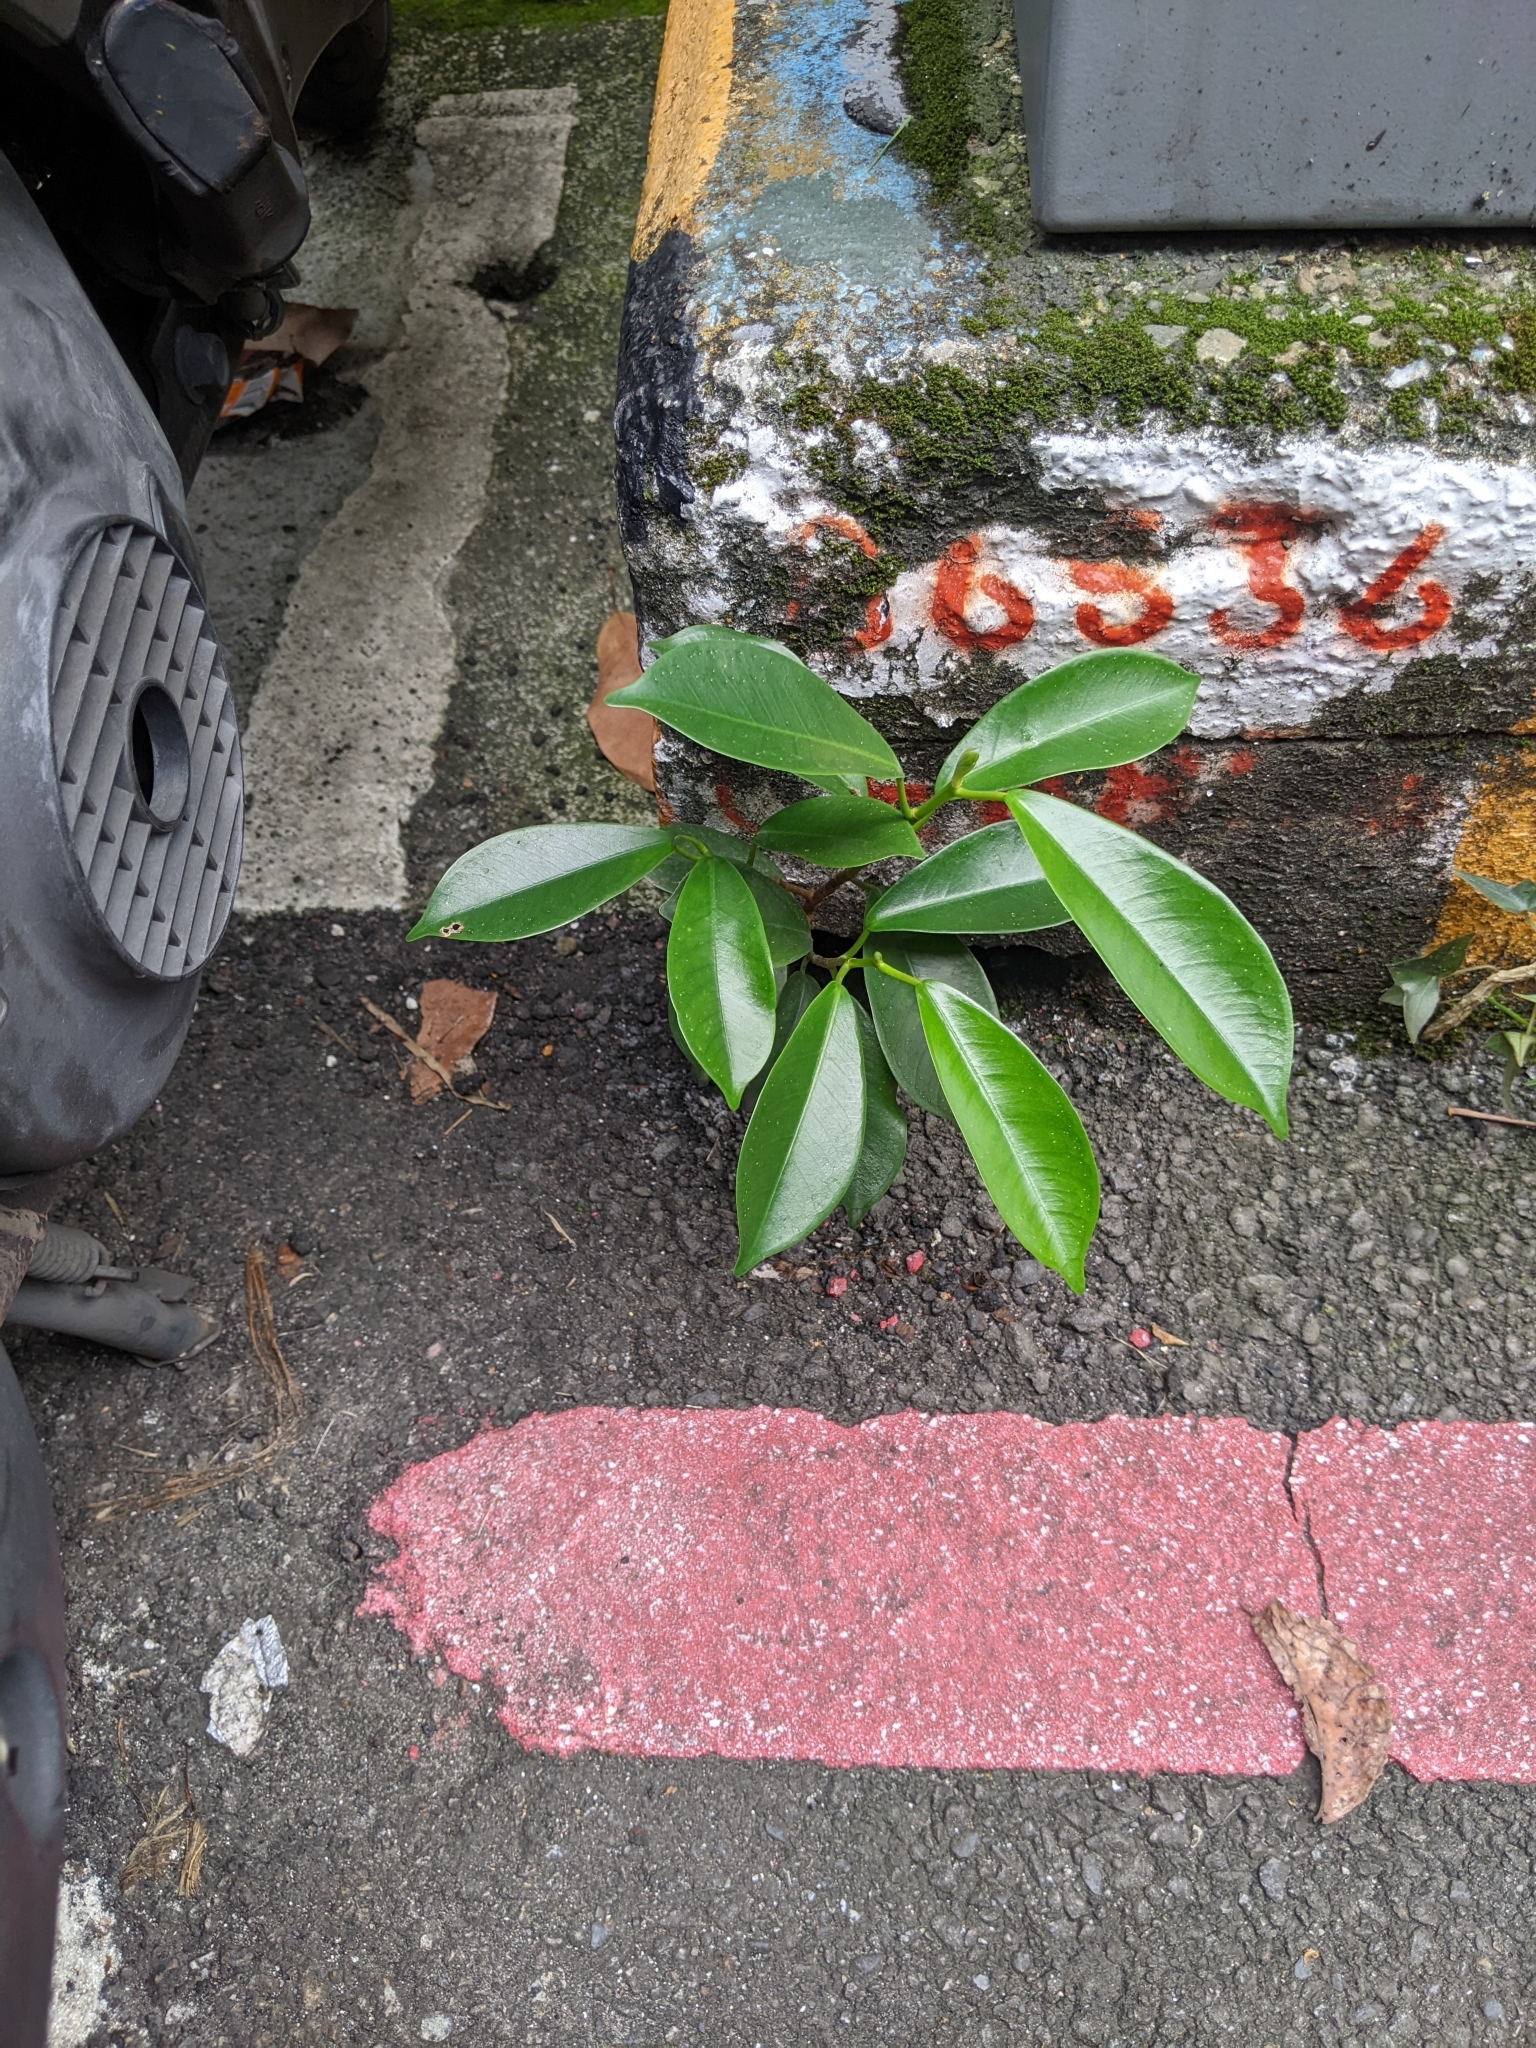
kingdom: Plantae
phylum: Tracheophyta
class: Magnoliopsida
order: Rosales
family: Moraceae
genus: Ficus
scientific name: Ficus microcarpa
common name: Chinese banyan
